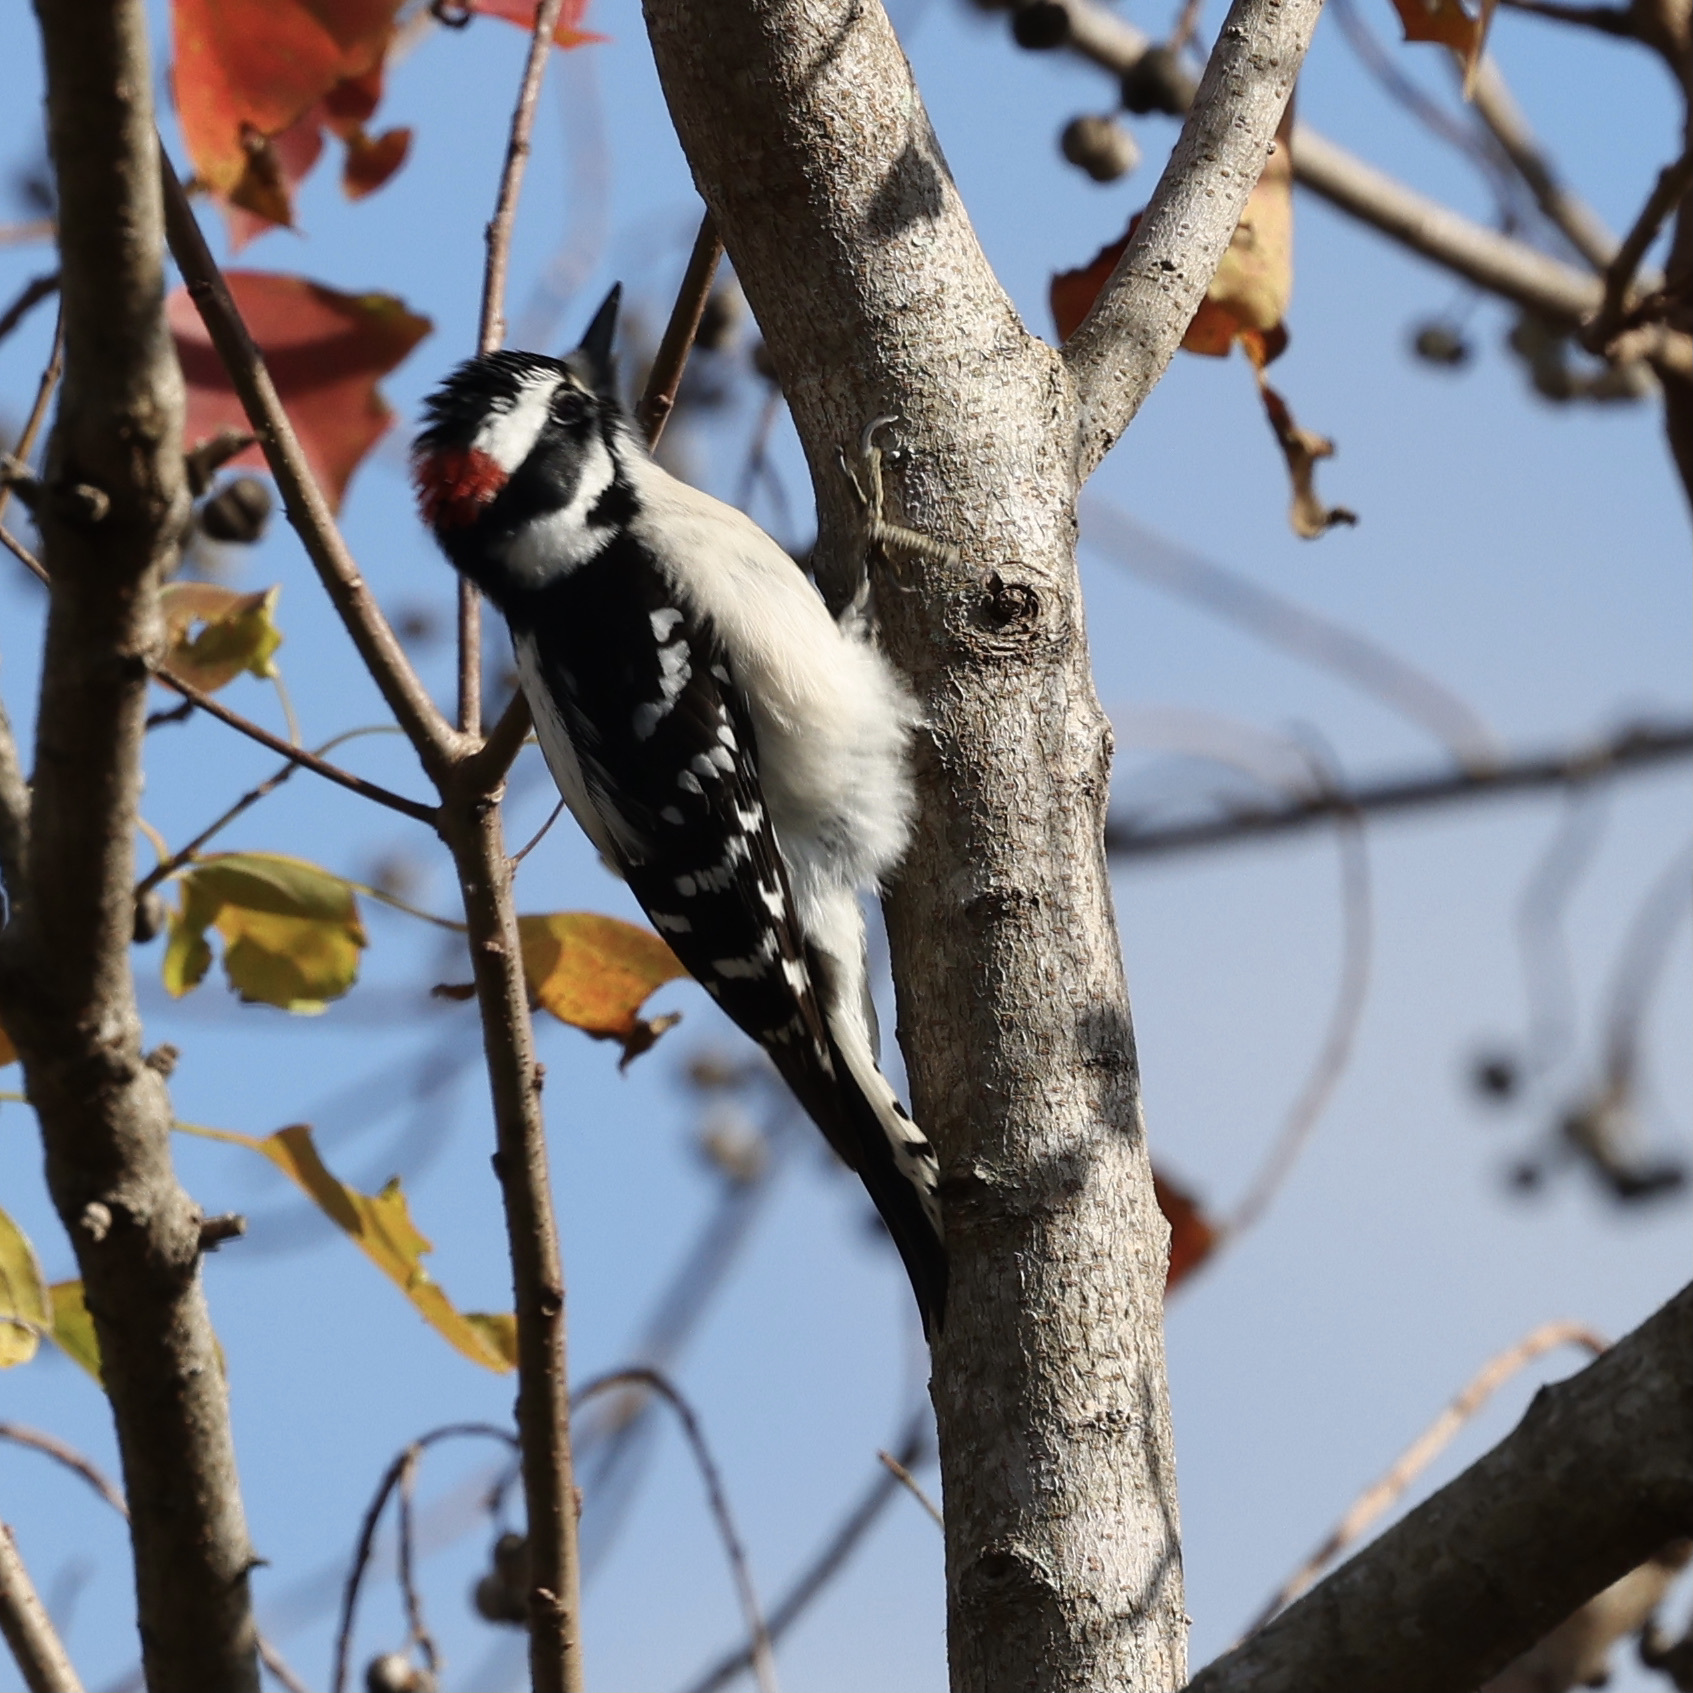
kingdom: Animalia
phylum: Chordata
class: Aves
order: Piciformes
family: Picidae
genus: Dryobates
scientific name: Dryobates pubescens
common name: Downy woodpecker
